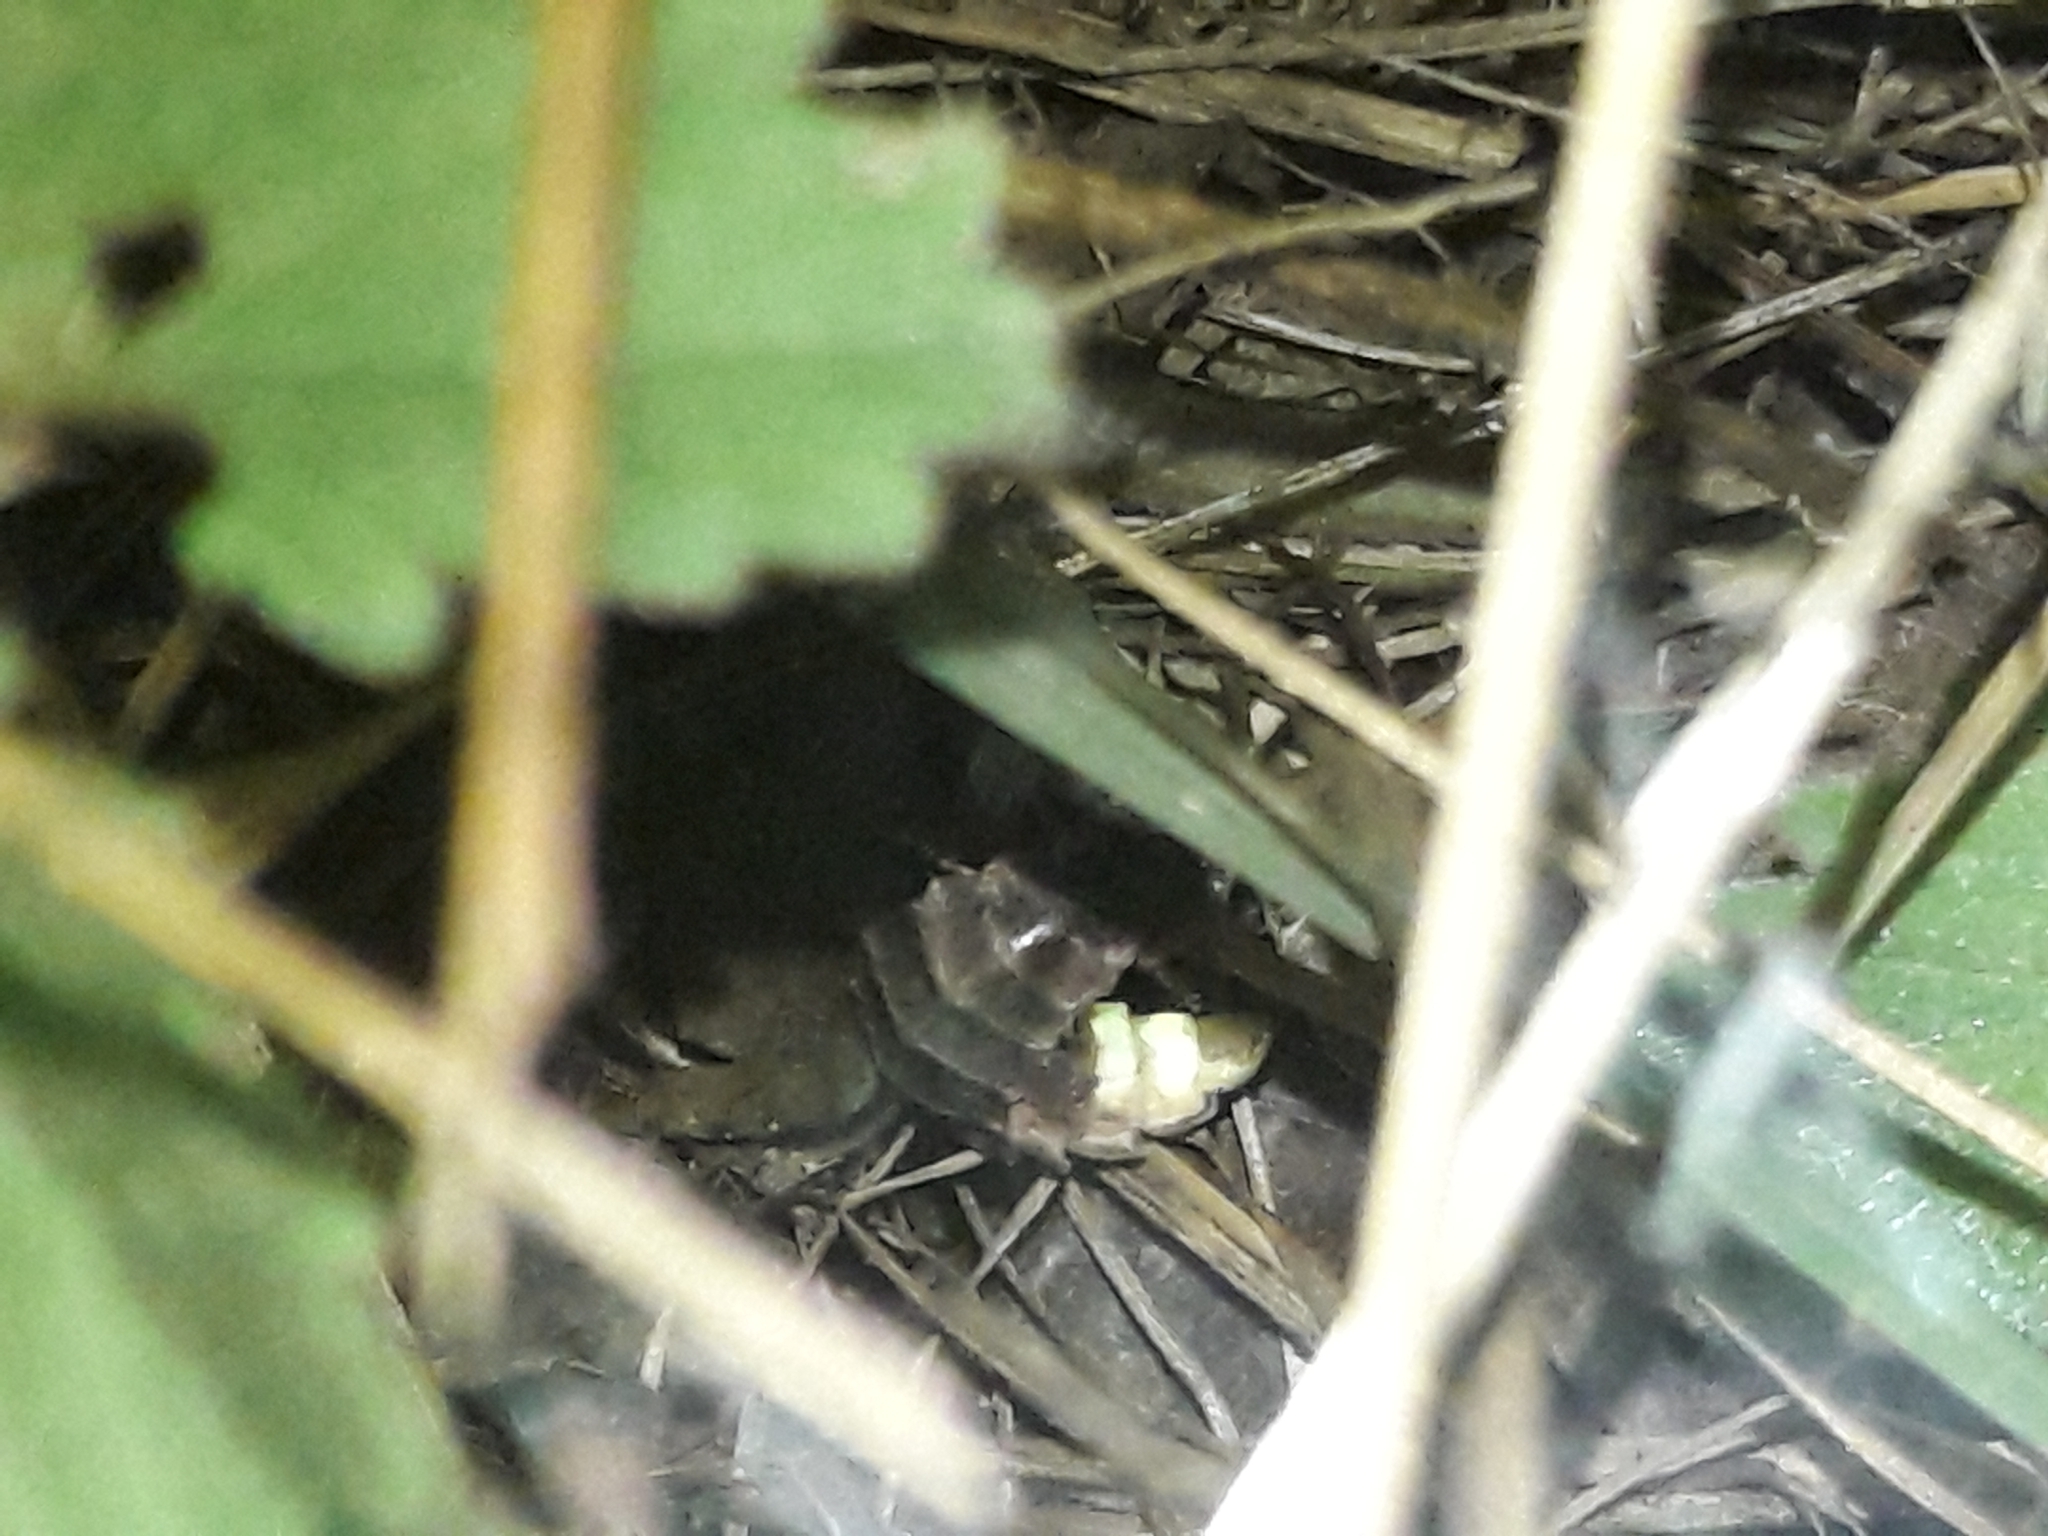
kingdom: Animalia
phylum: Arthropoda
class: Insecta
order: Coleoptera
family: Lampyridae
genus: Lampyris
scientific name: Lampyris noctiluca
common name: Glow-worm
